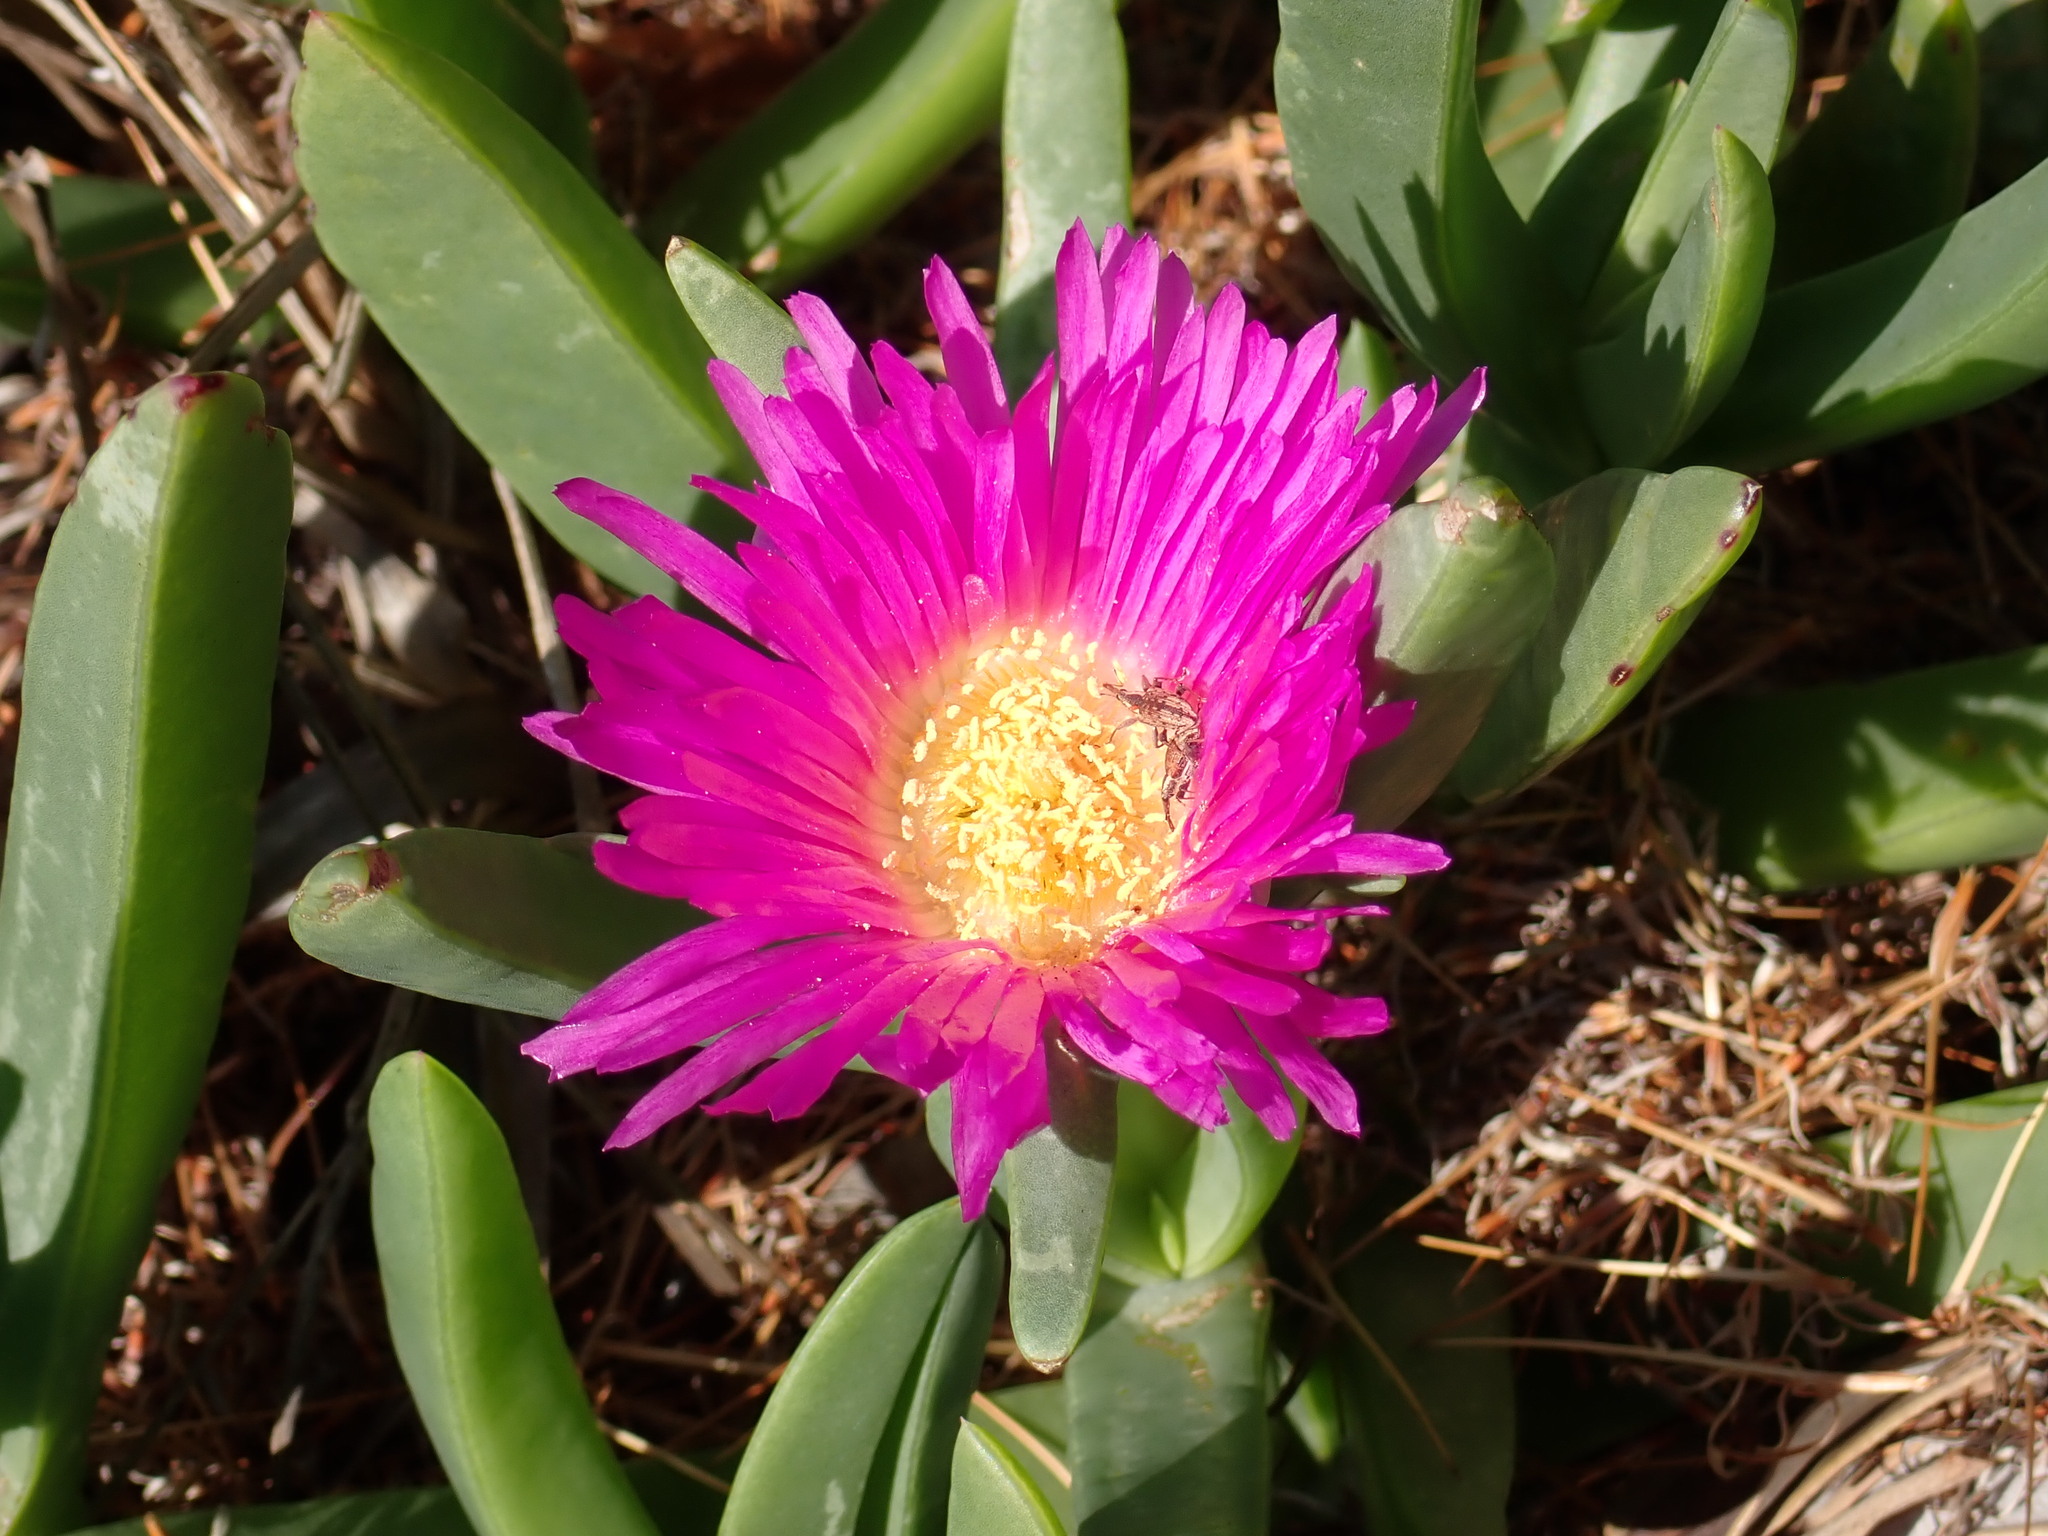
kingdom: Plantae
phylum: Tracheophyta
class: Magnoliopsida
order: Caryophyllales
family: Aizoaceae
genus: Carpobrotus
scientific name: Carpobrotus glaucescens
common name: Angular sea-fig
